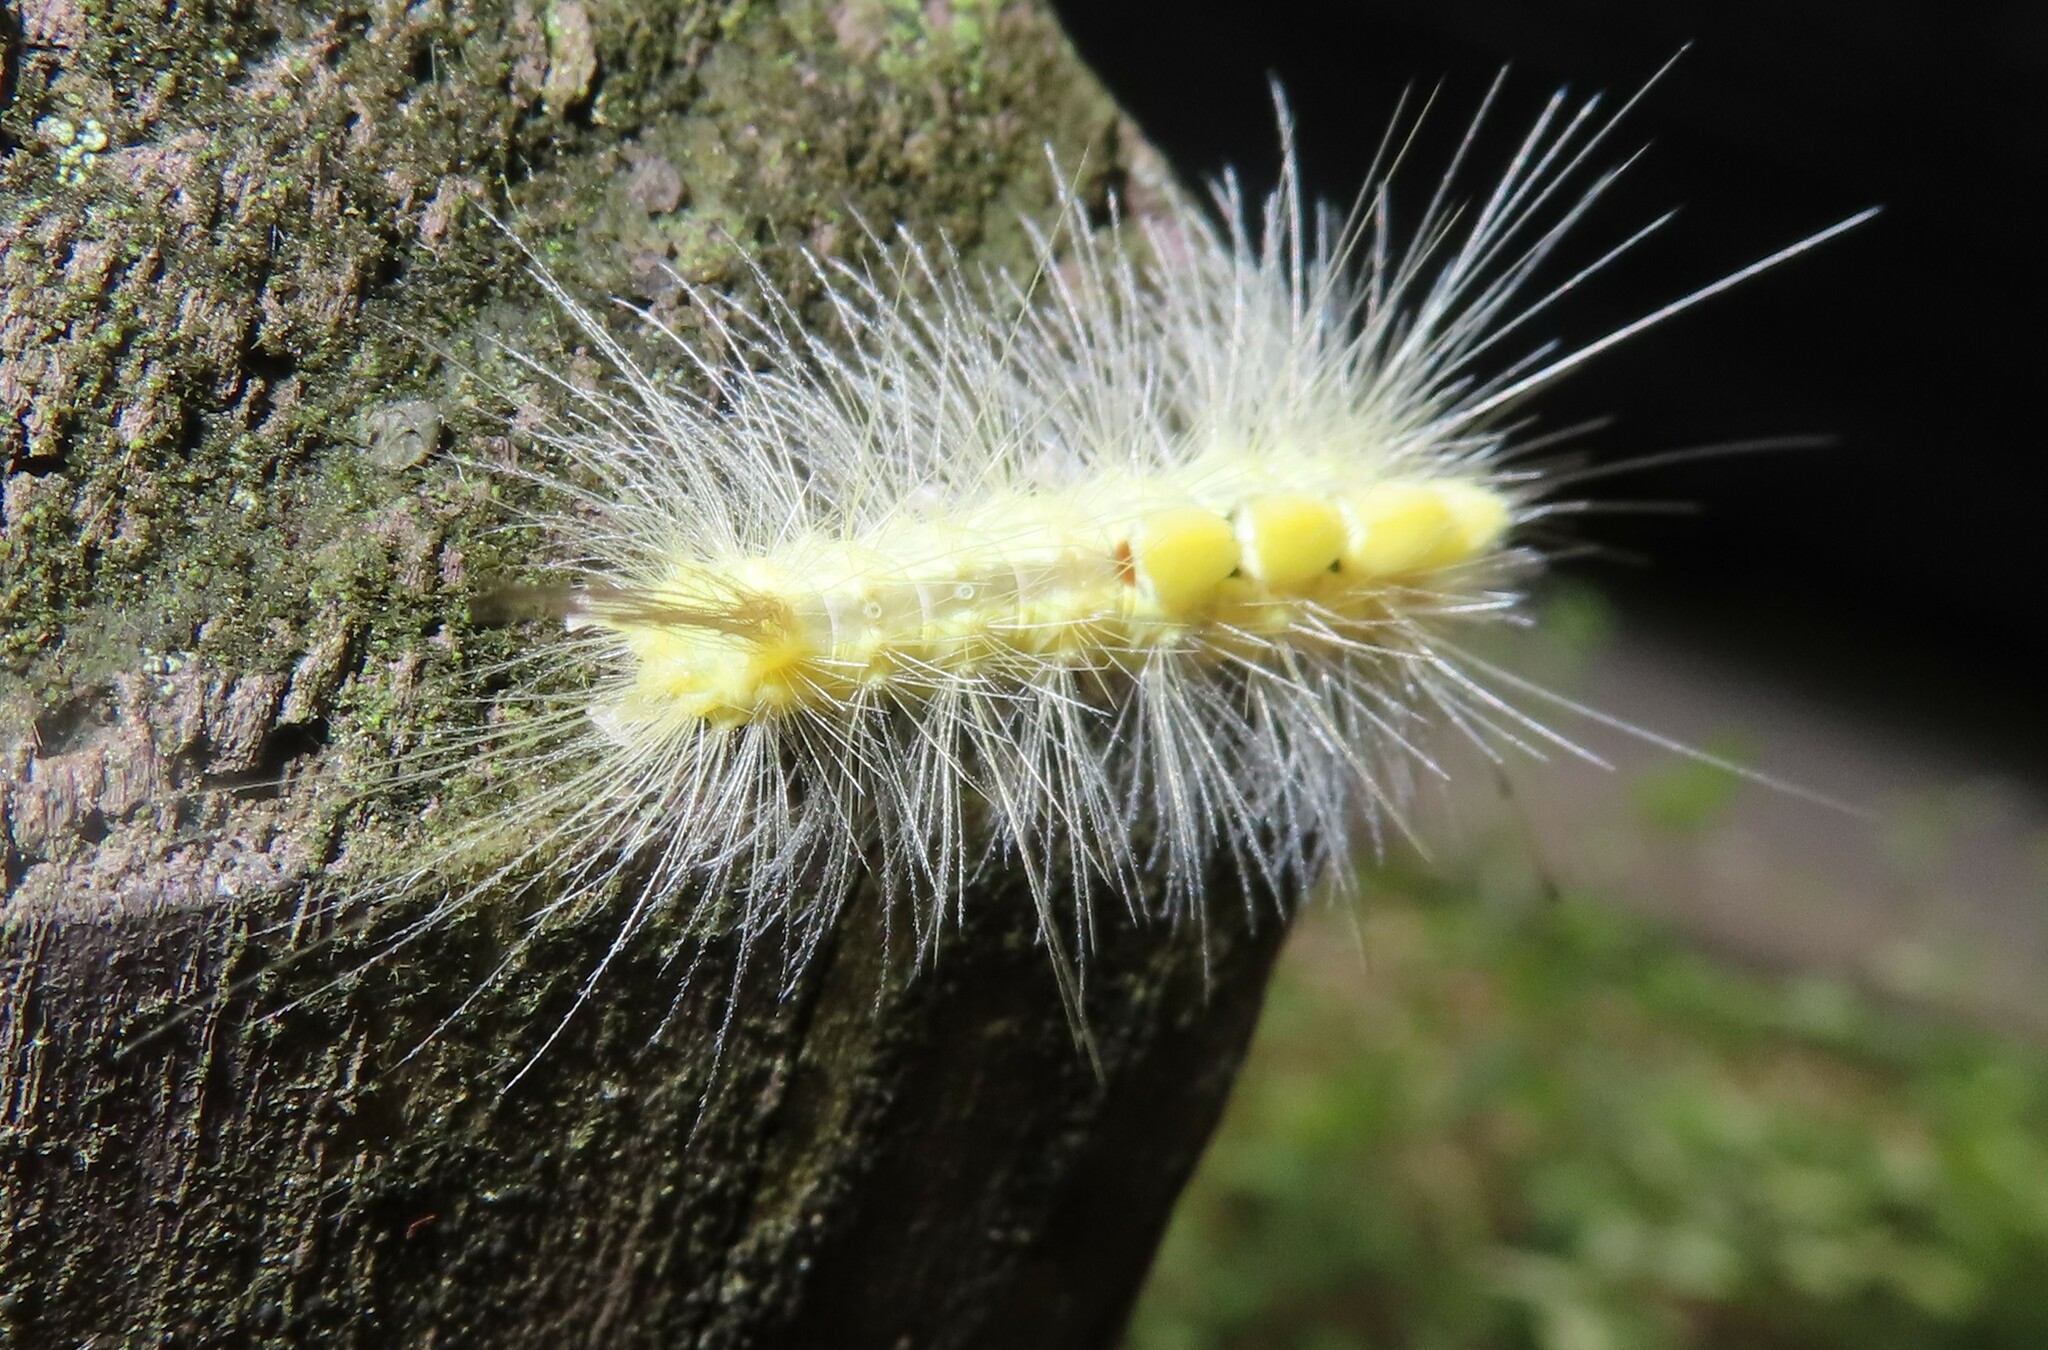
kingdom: Animalia
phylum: Arthropoda
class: Insecta
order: Lepidoptera
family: Erebidae
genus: Orgyia
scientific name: Orgyia definita
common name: Definite tussock moth
